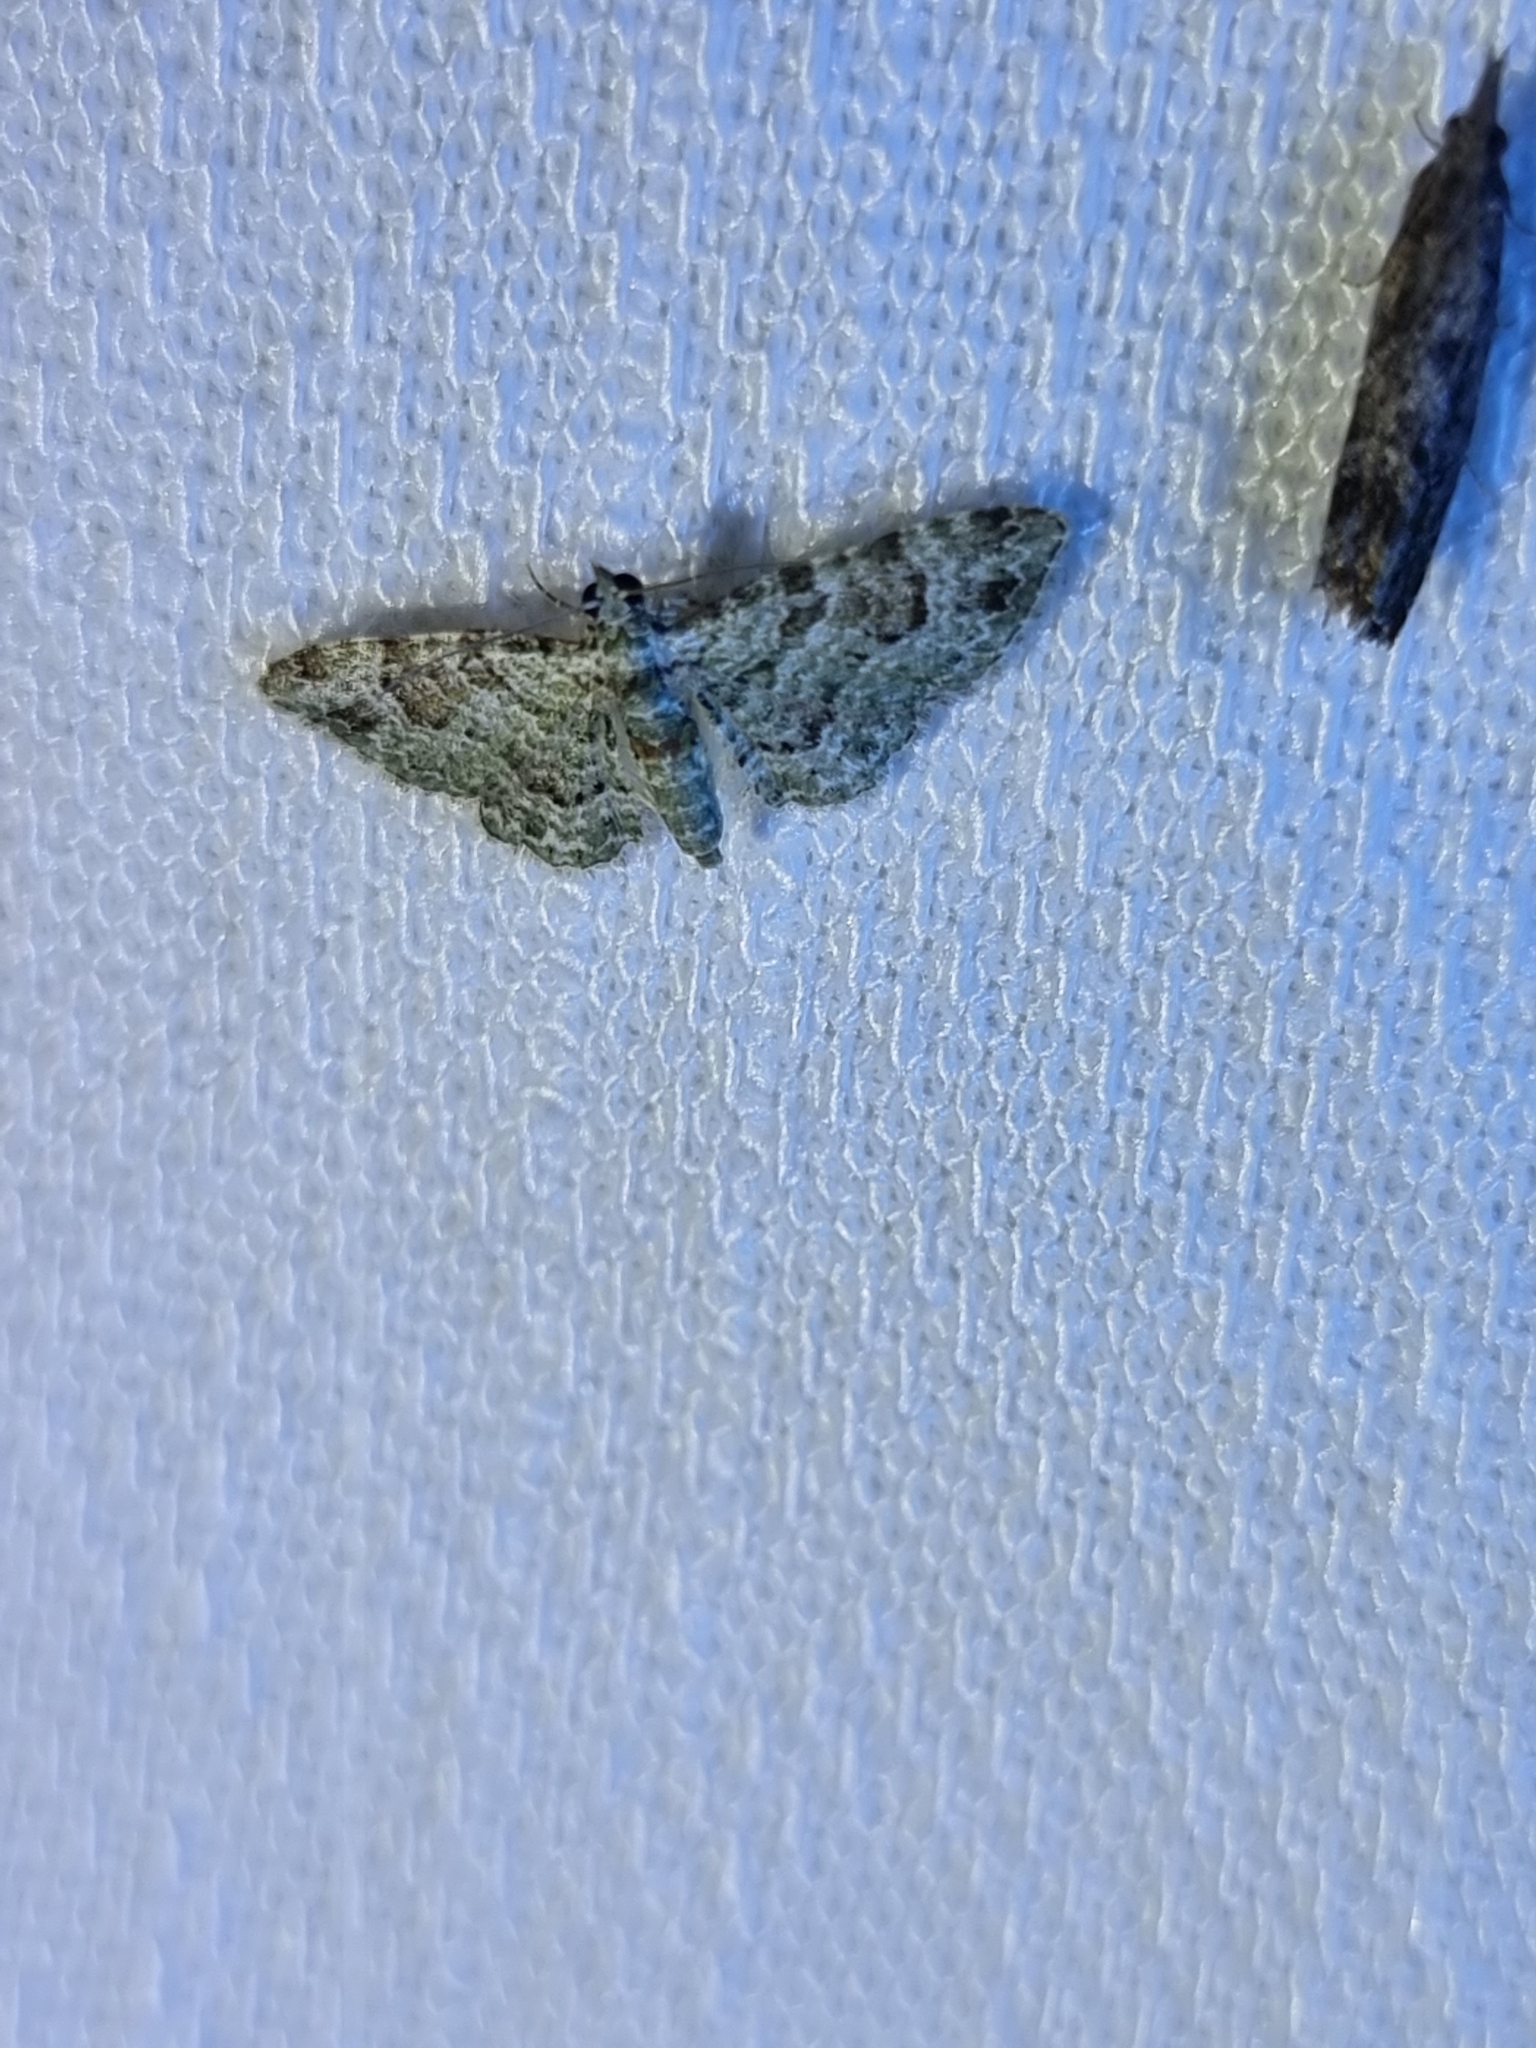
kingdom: Animalia
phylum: Arthropoda
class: Insecta
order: Lepidoptera
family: Geometridae
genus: Calluga
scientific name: Calluga costalis
